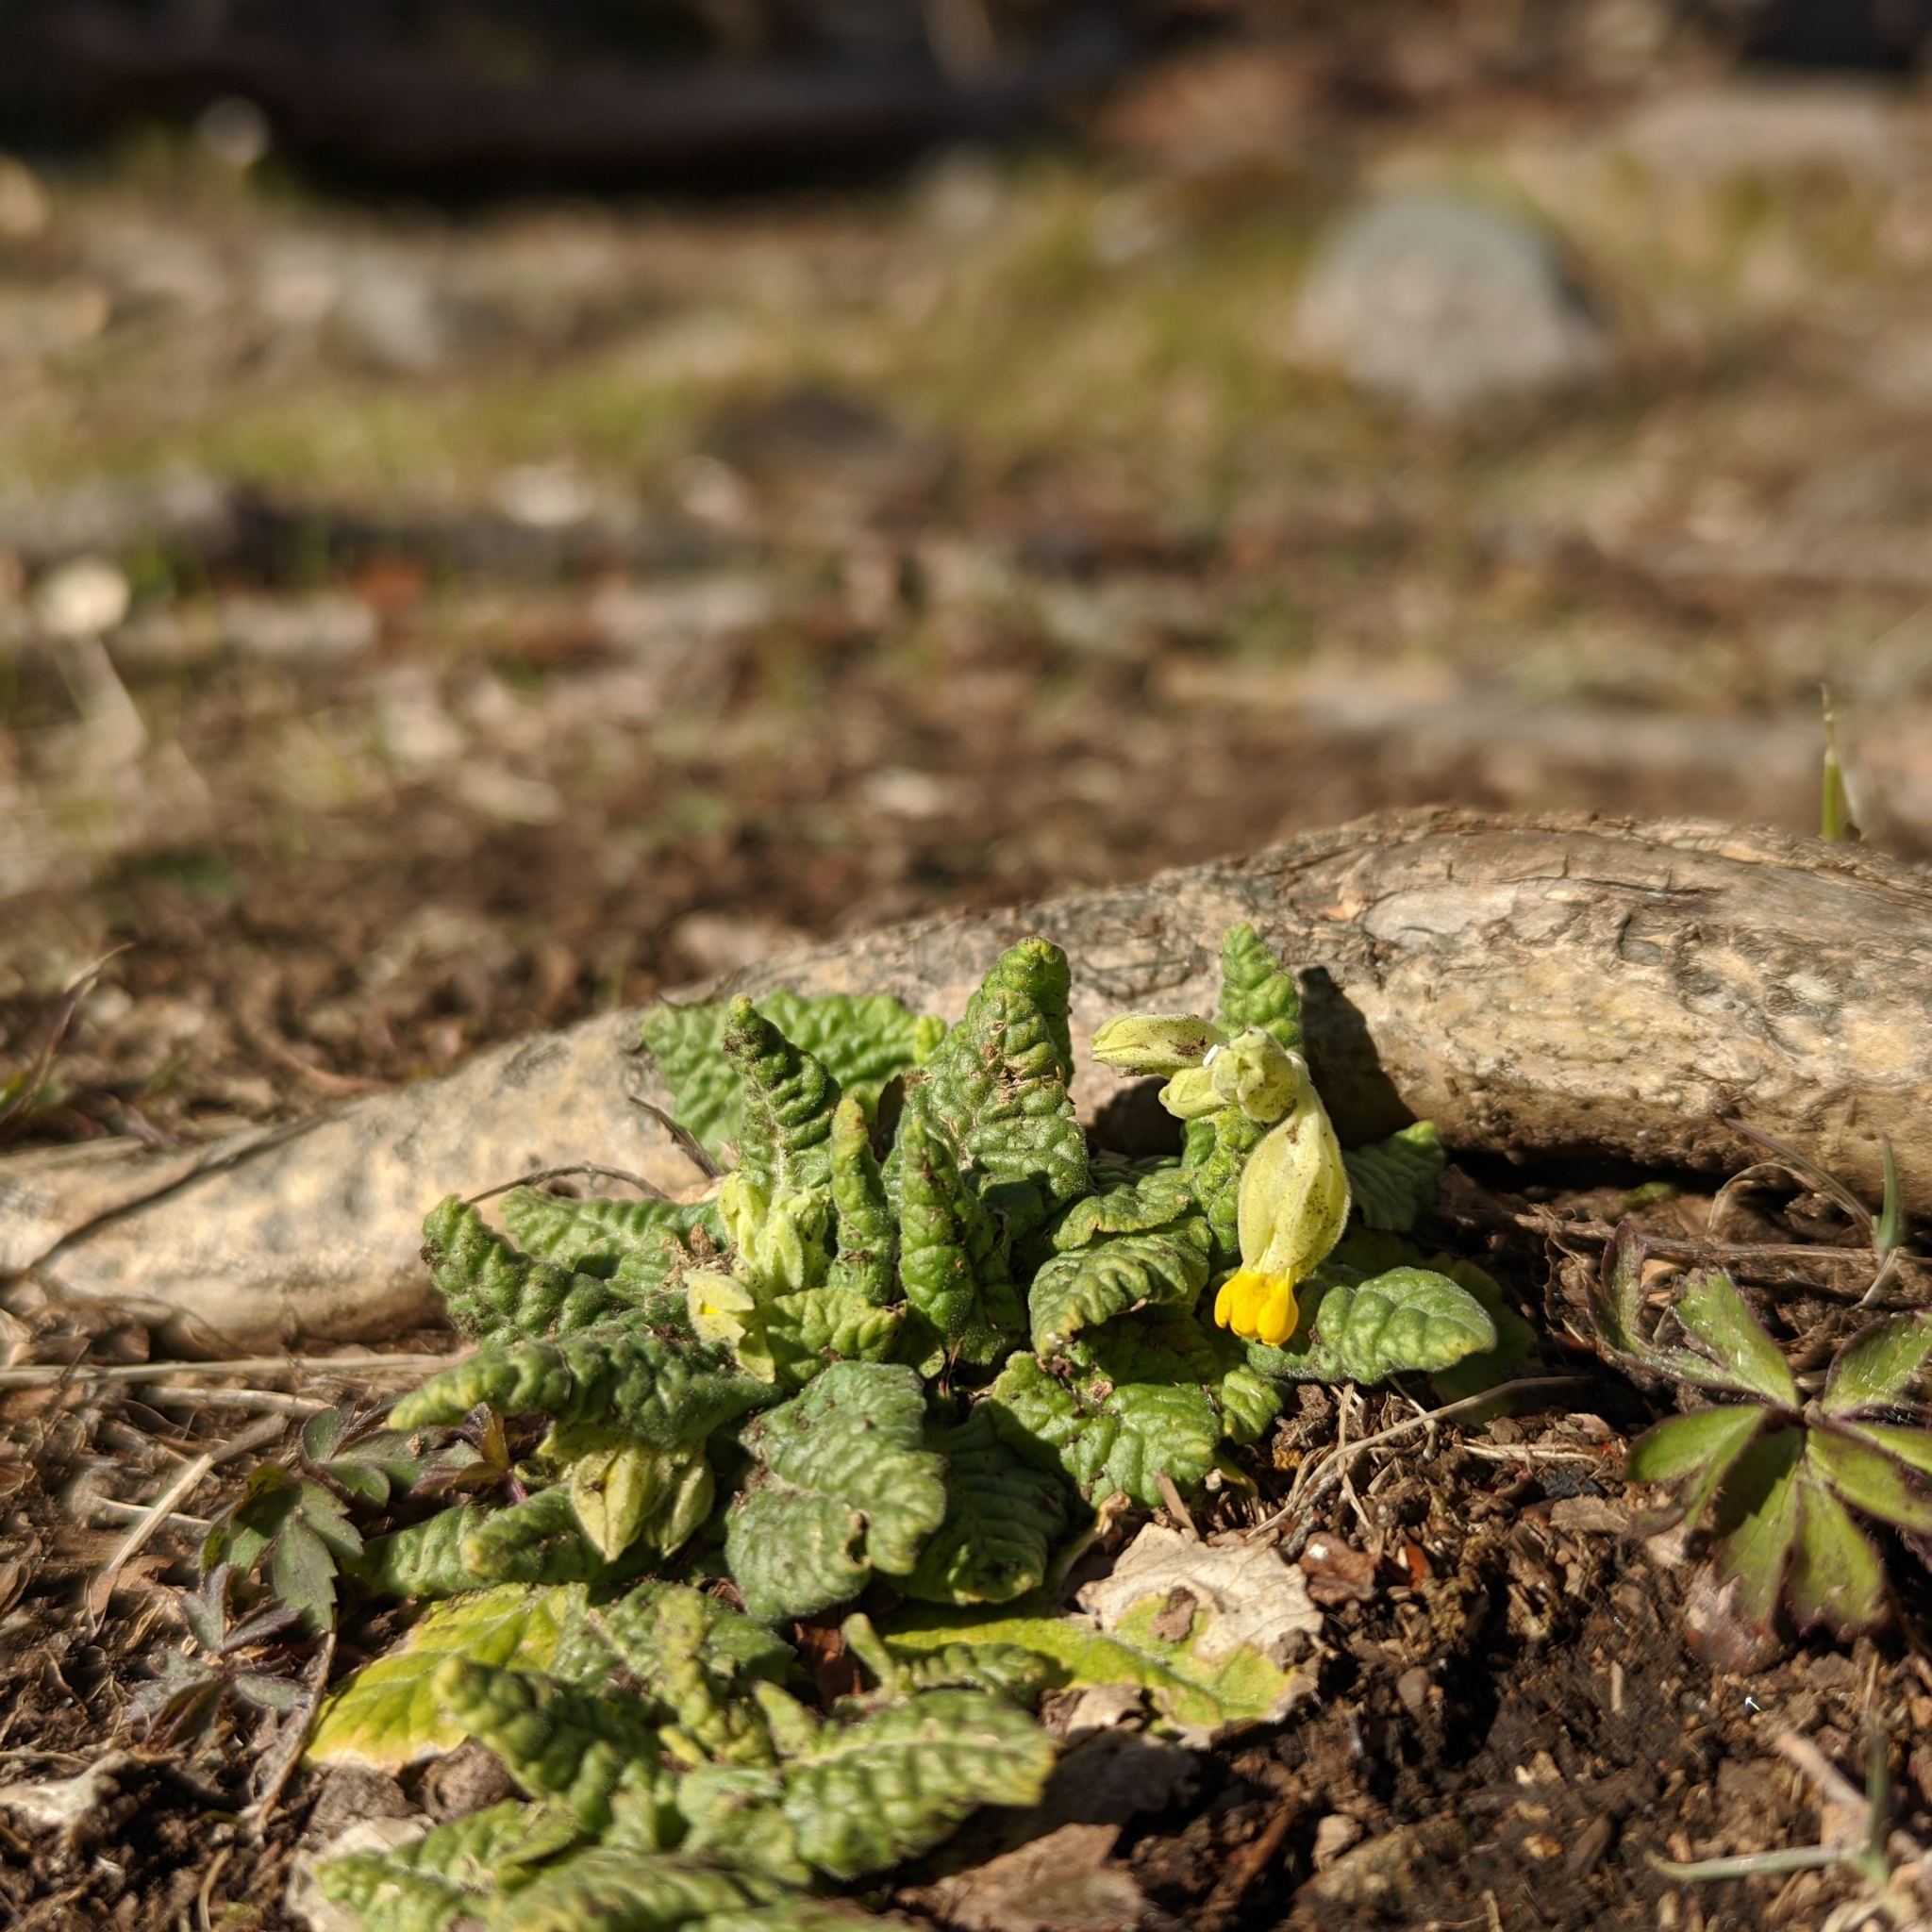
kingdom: Plantae
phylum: Tracheophyta
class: Magnoliopsida
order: Ericales
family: Primulaceae
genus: Primula
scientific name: Primula veris
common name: Cowslip
